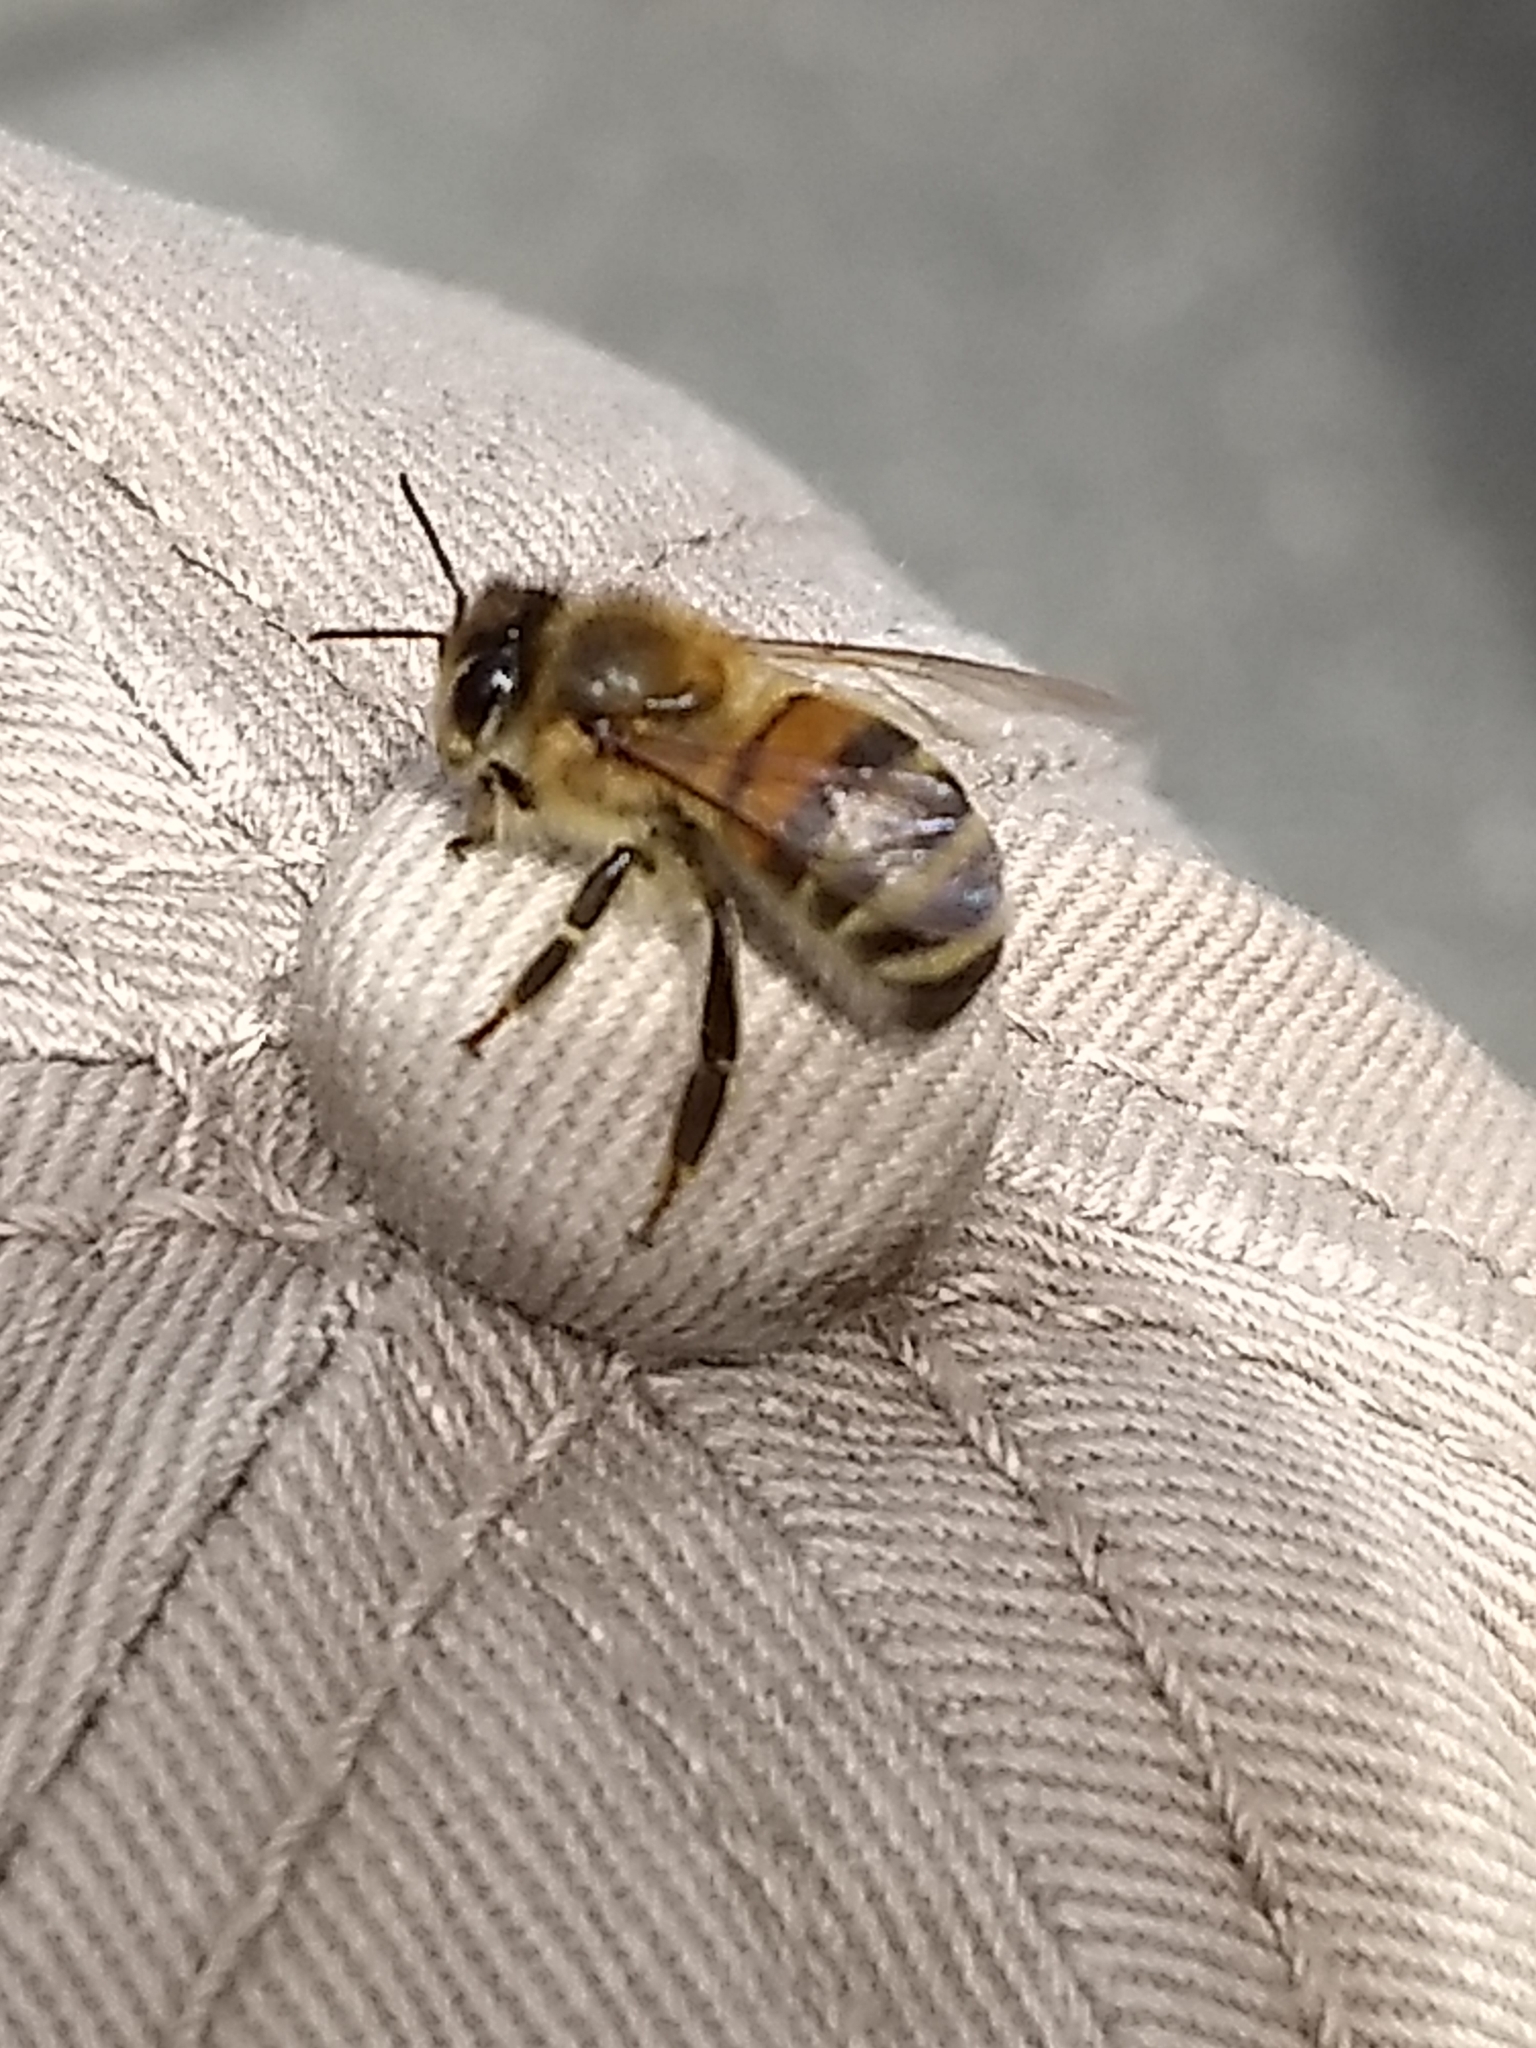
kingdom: Animalia
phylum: Arthropoda
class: Insecta
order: Hymenoptera
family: Apidae
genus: Apis
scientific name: Apis mellifera
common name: Honey bee
